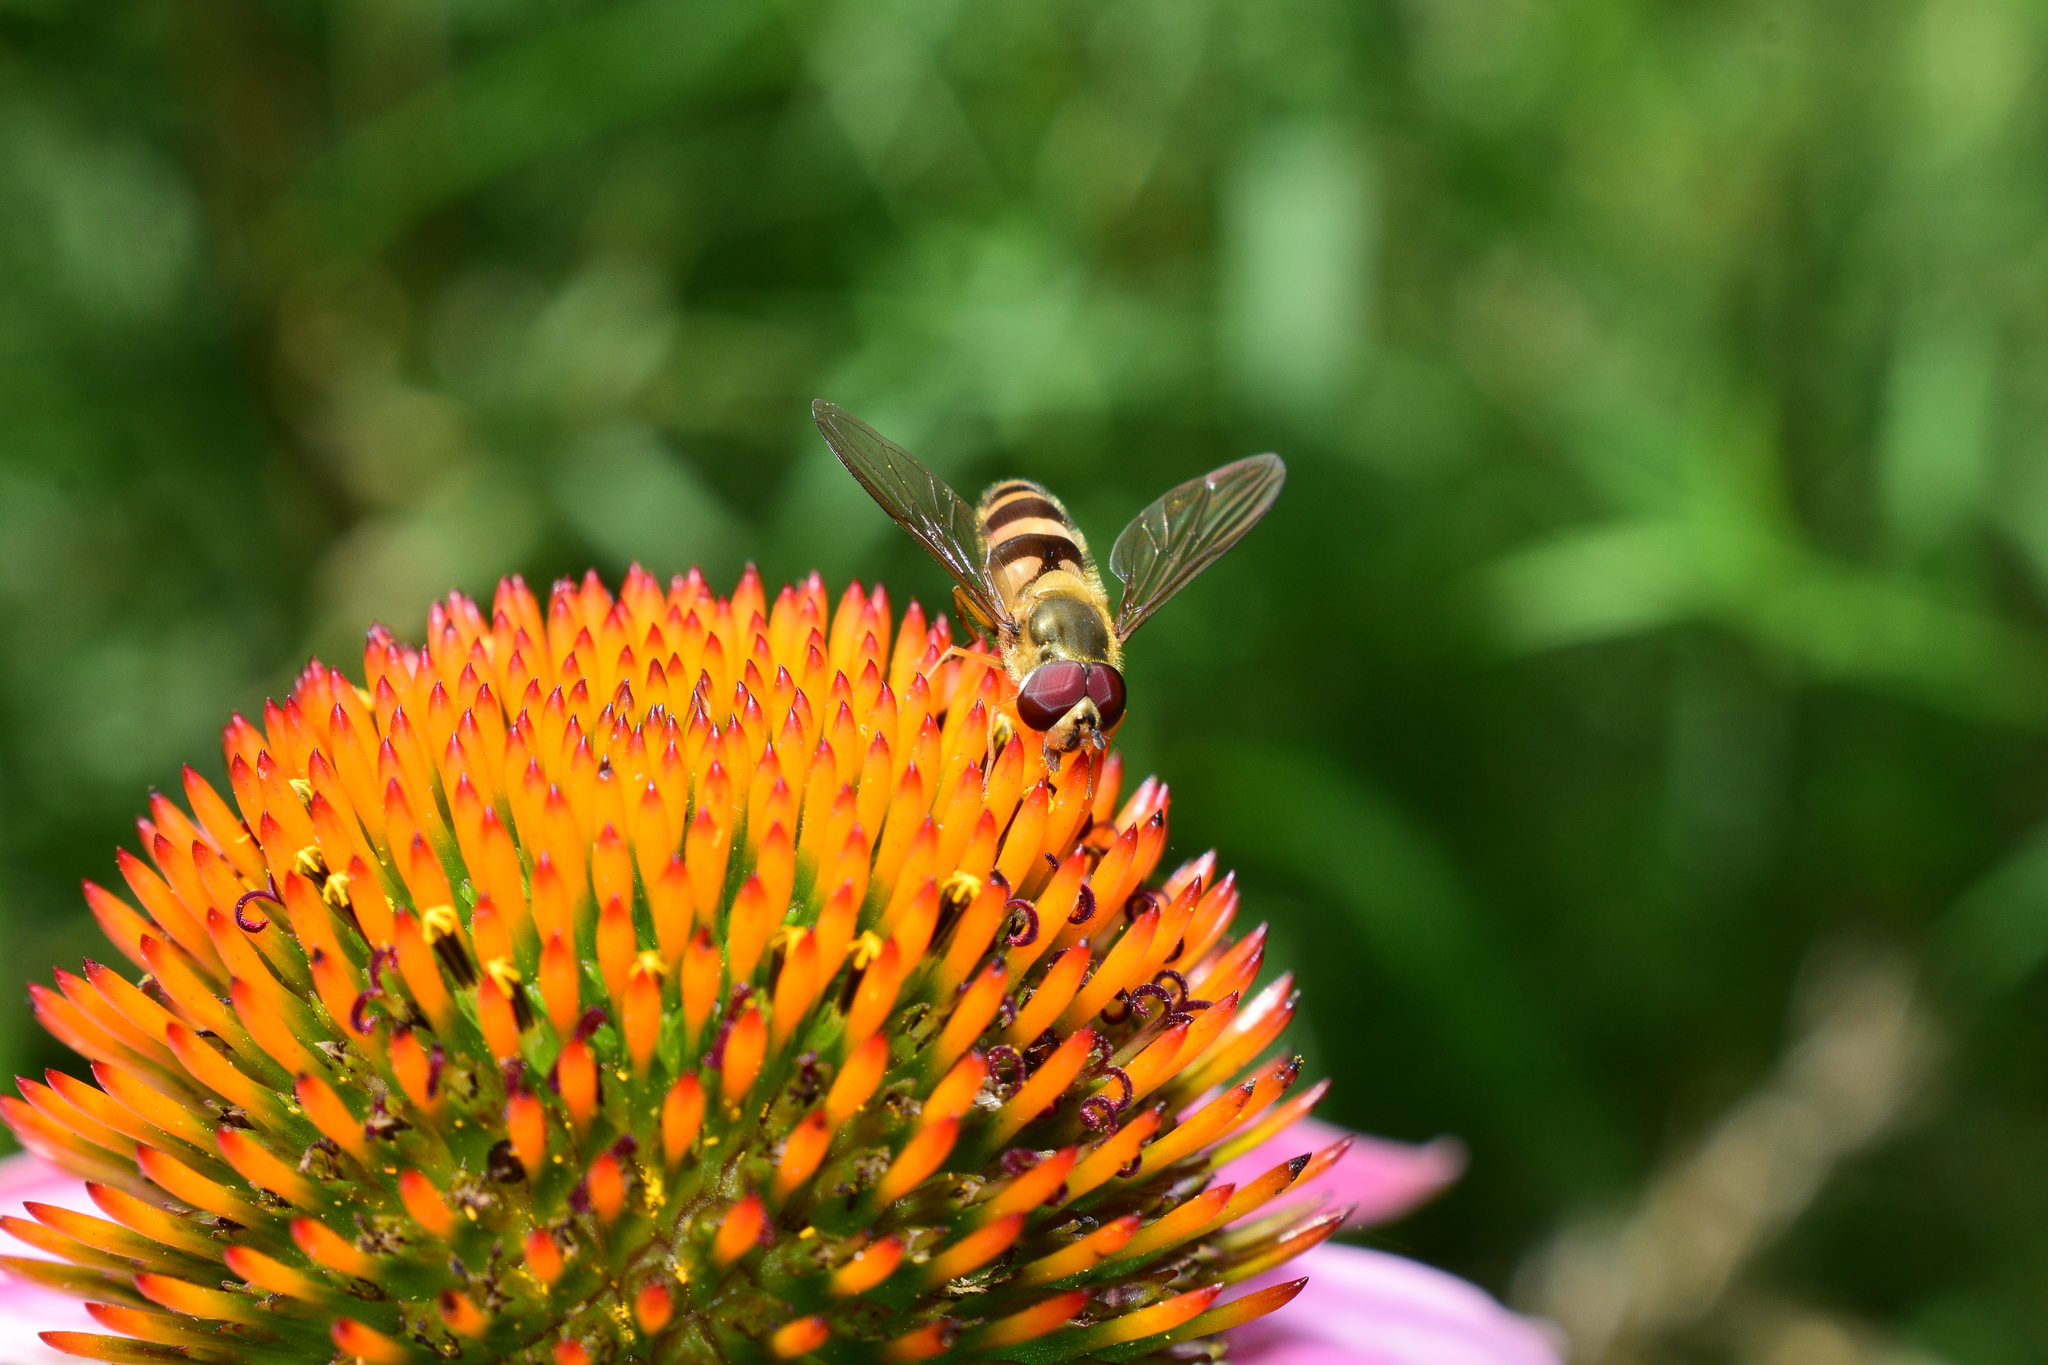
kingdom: Animalia
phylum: Arthropoda
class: Insecta
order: Diptera
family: Syrphidae
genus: Epistrophe
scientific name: Epistrophe grossulariae
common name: Black-horned smoothtail
